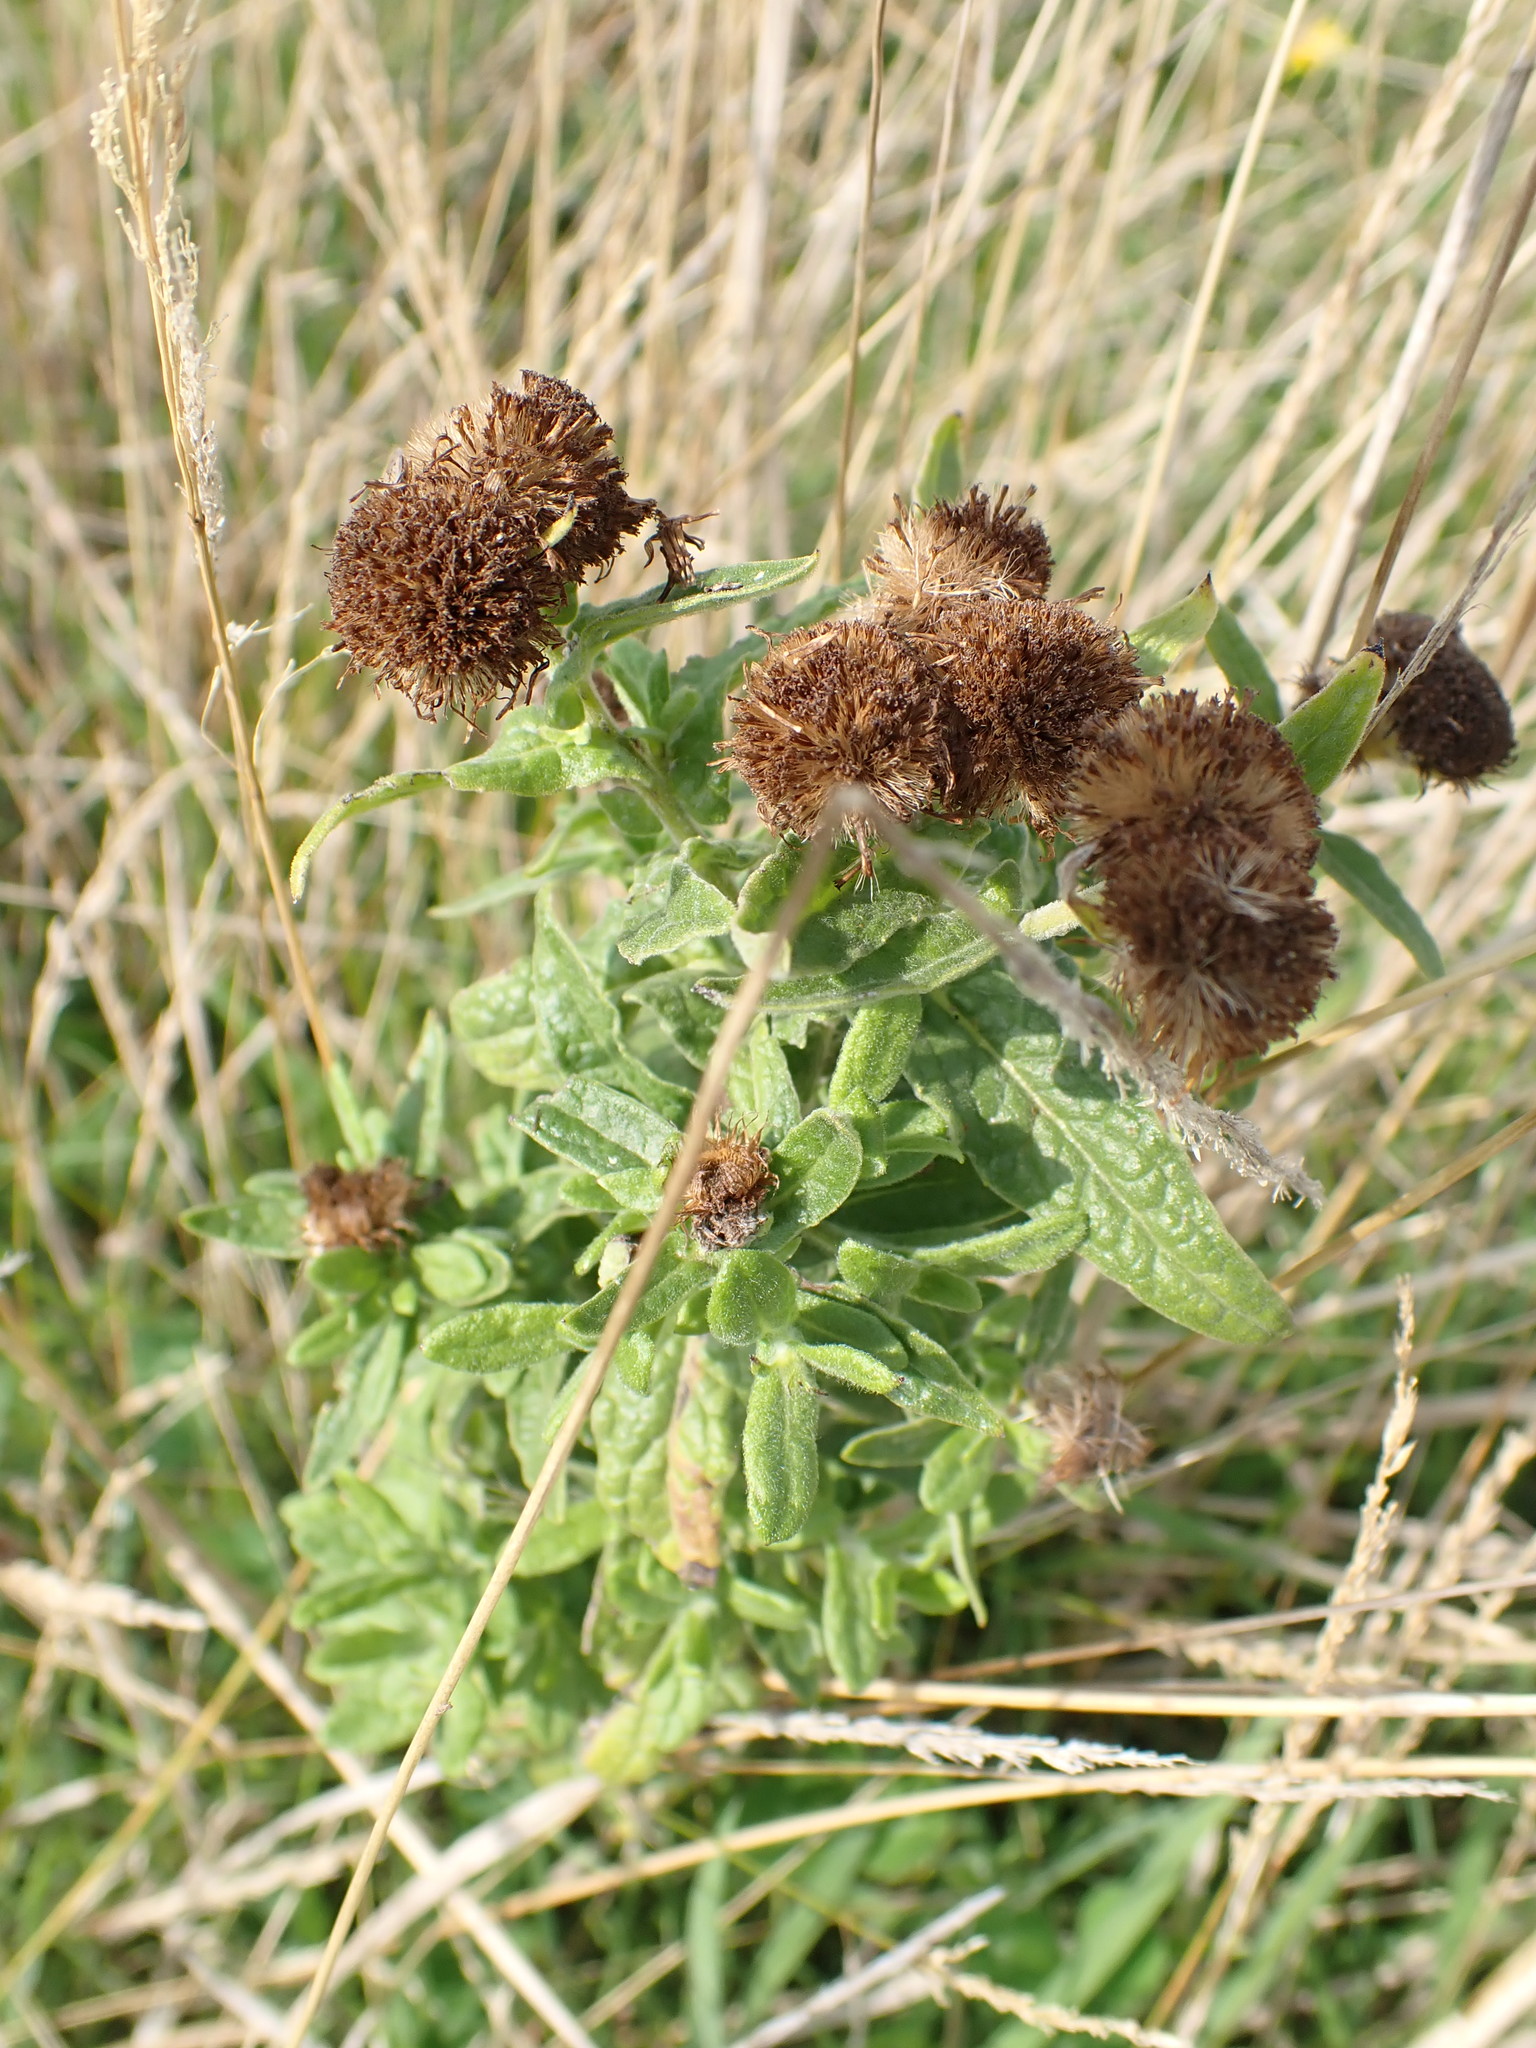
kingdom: Plantae
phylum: Tracheophyta
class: Magnoliopsida
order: Asterales
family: Asteraceae
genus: Pulicaria
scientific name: Pulicaria dysenterica
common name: Common fleabane
